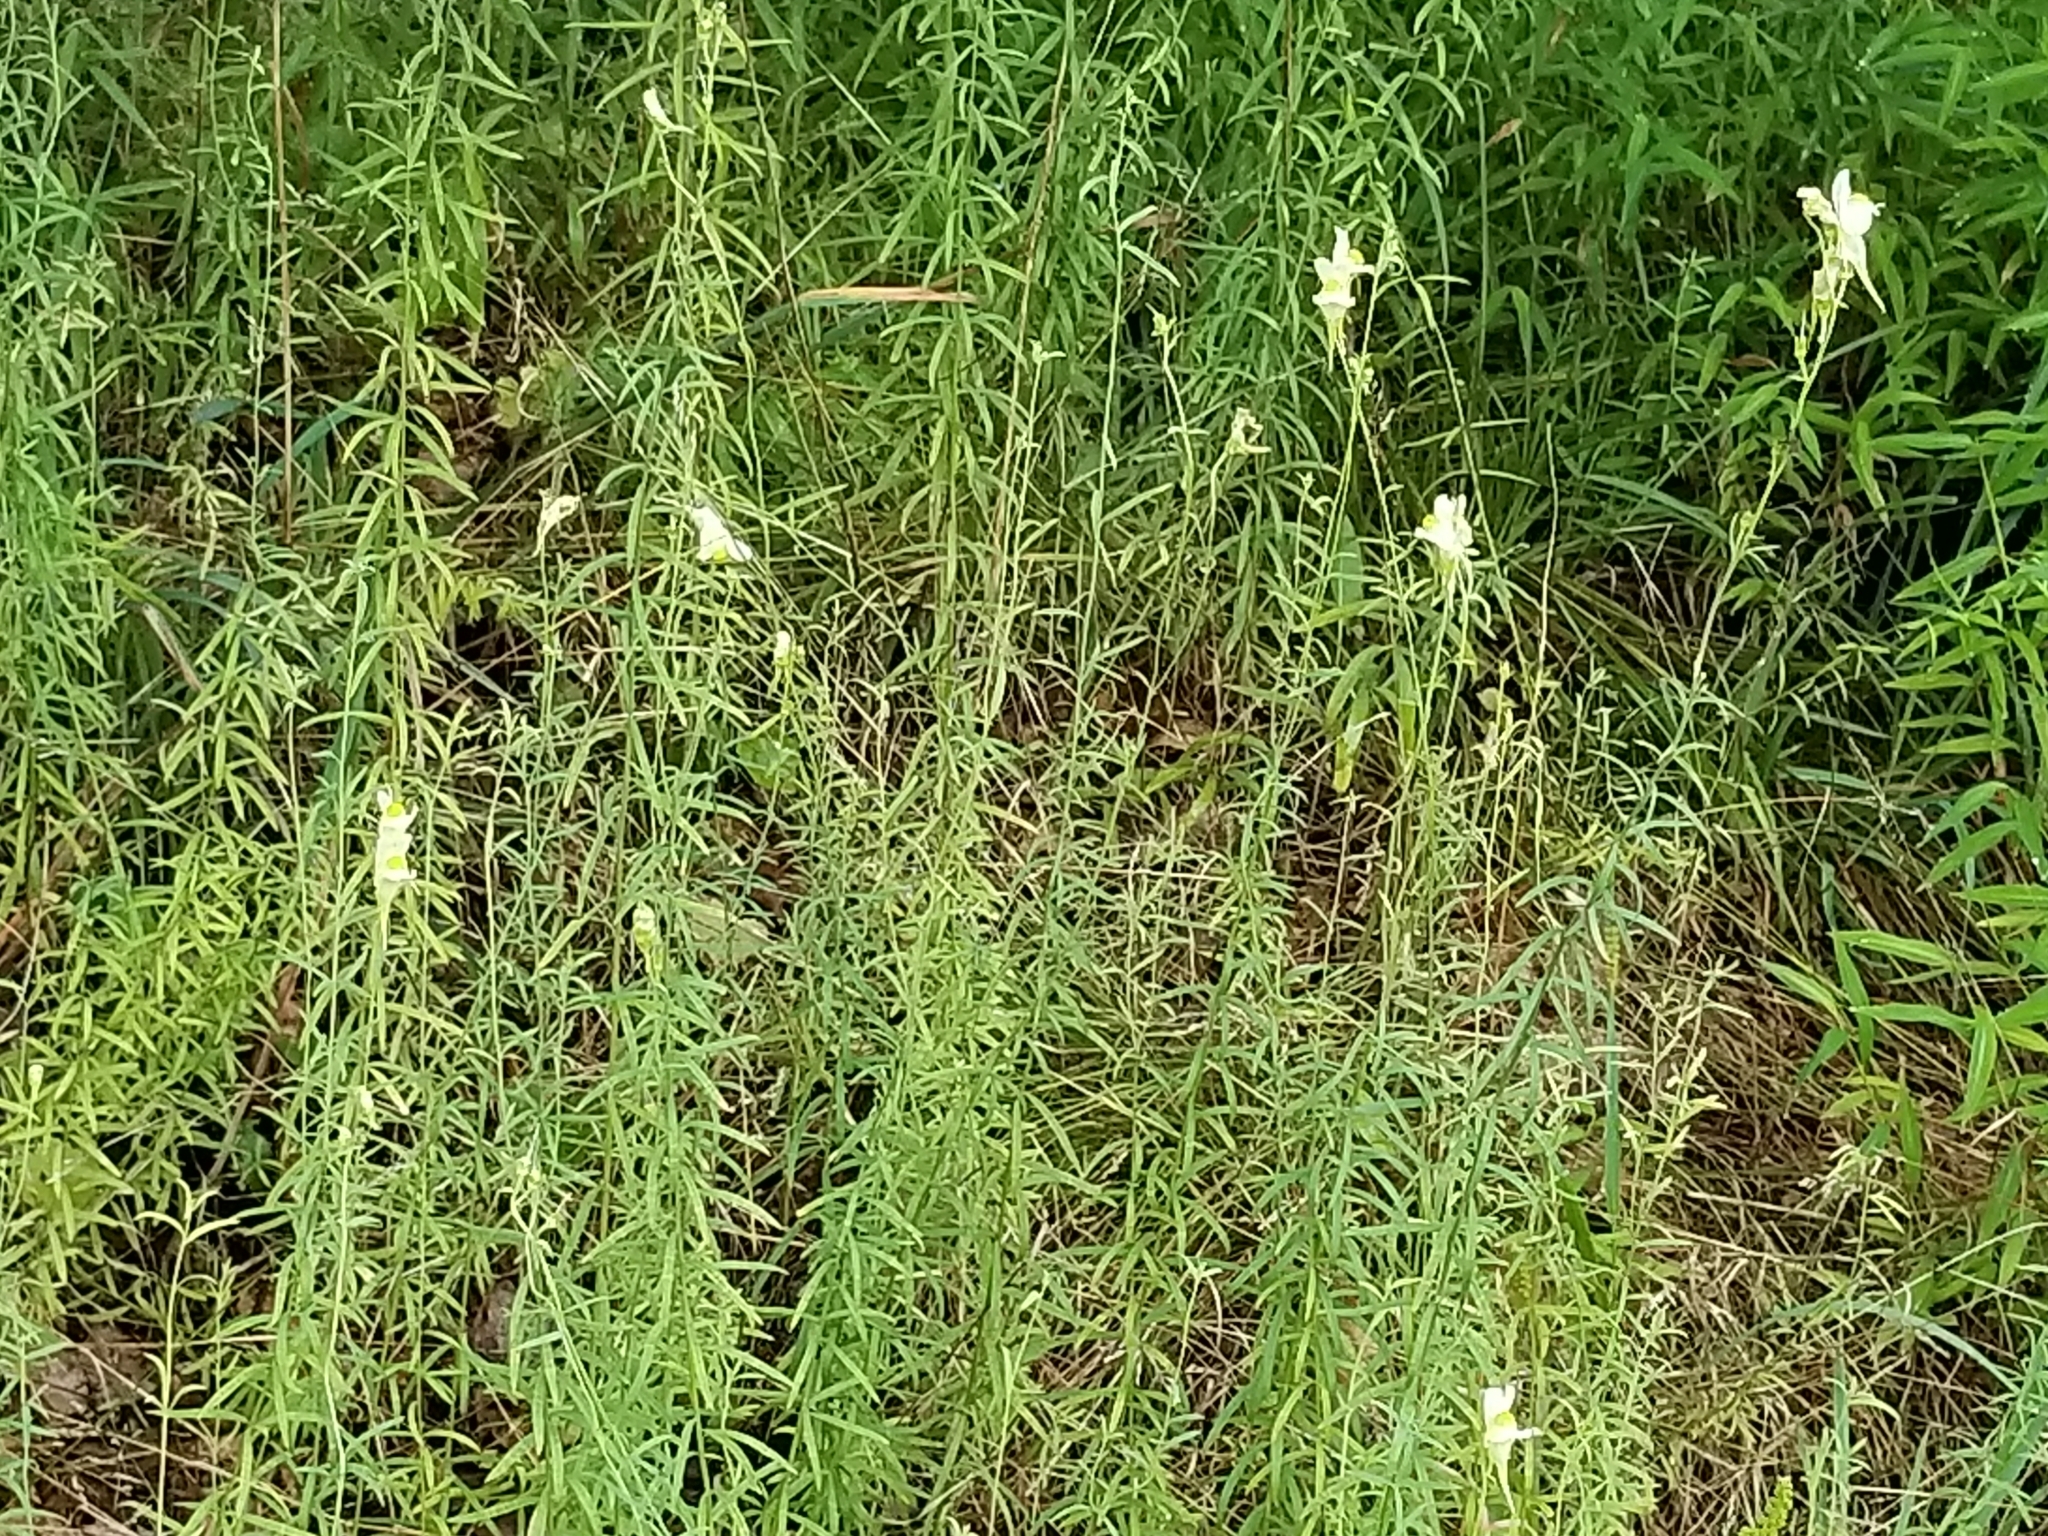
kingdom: Plantae
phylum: Tracheophyta
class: Magnoliopsida
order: Lamiales
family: Plantaginaceae
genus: Linaria
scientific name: Linaria vulgaris
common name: Butter and eggs
